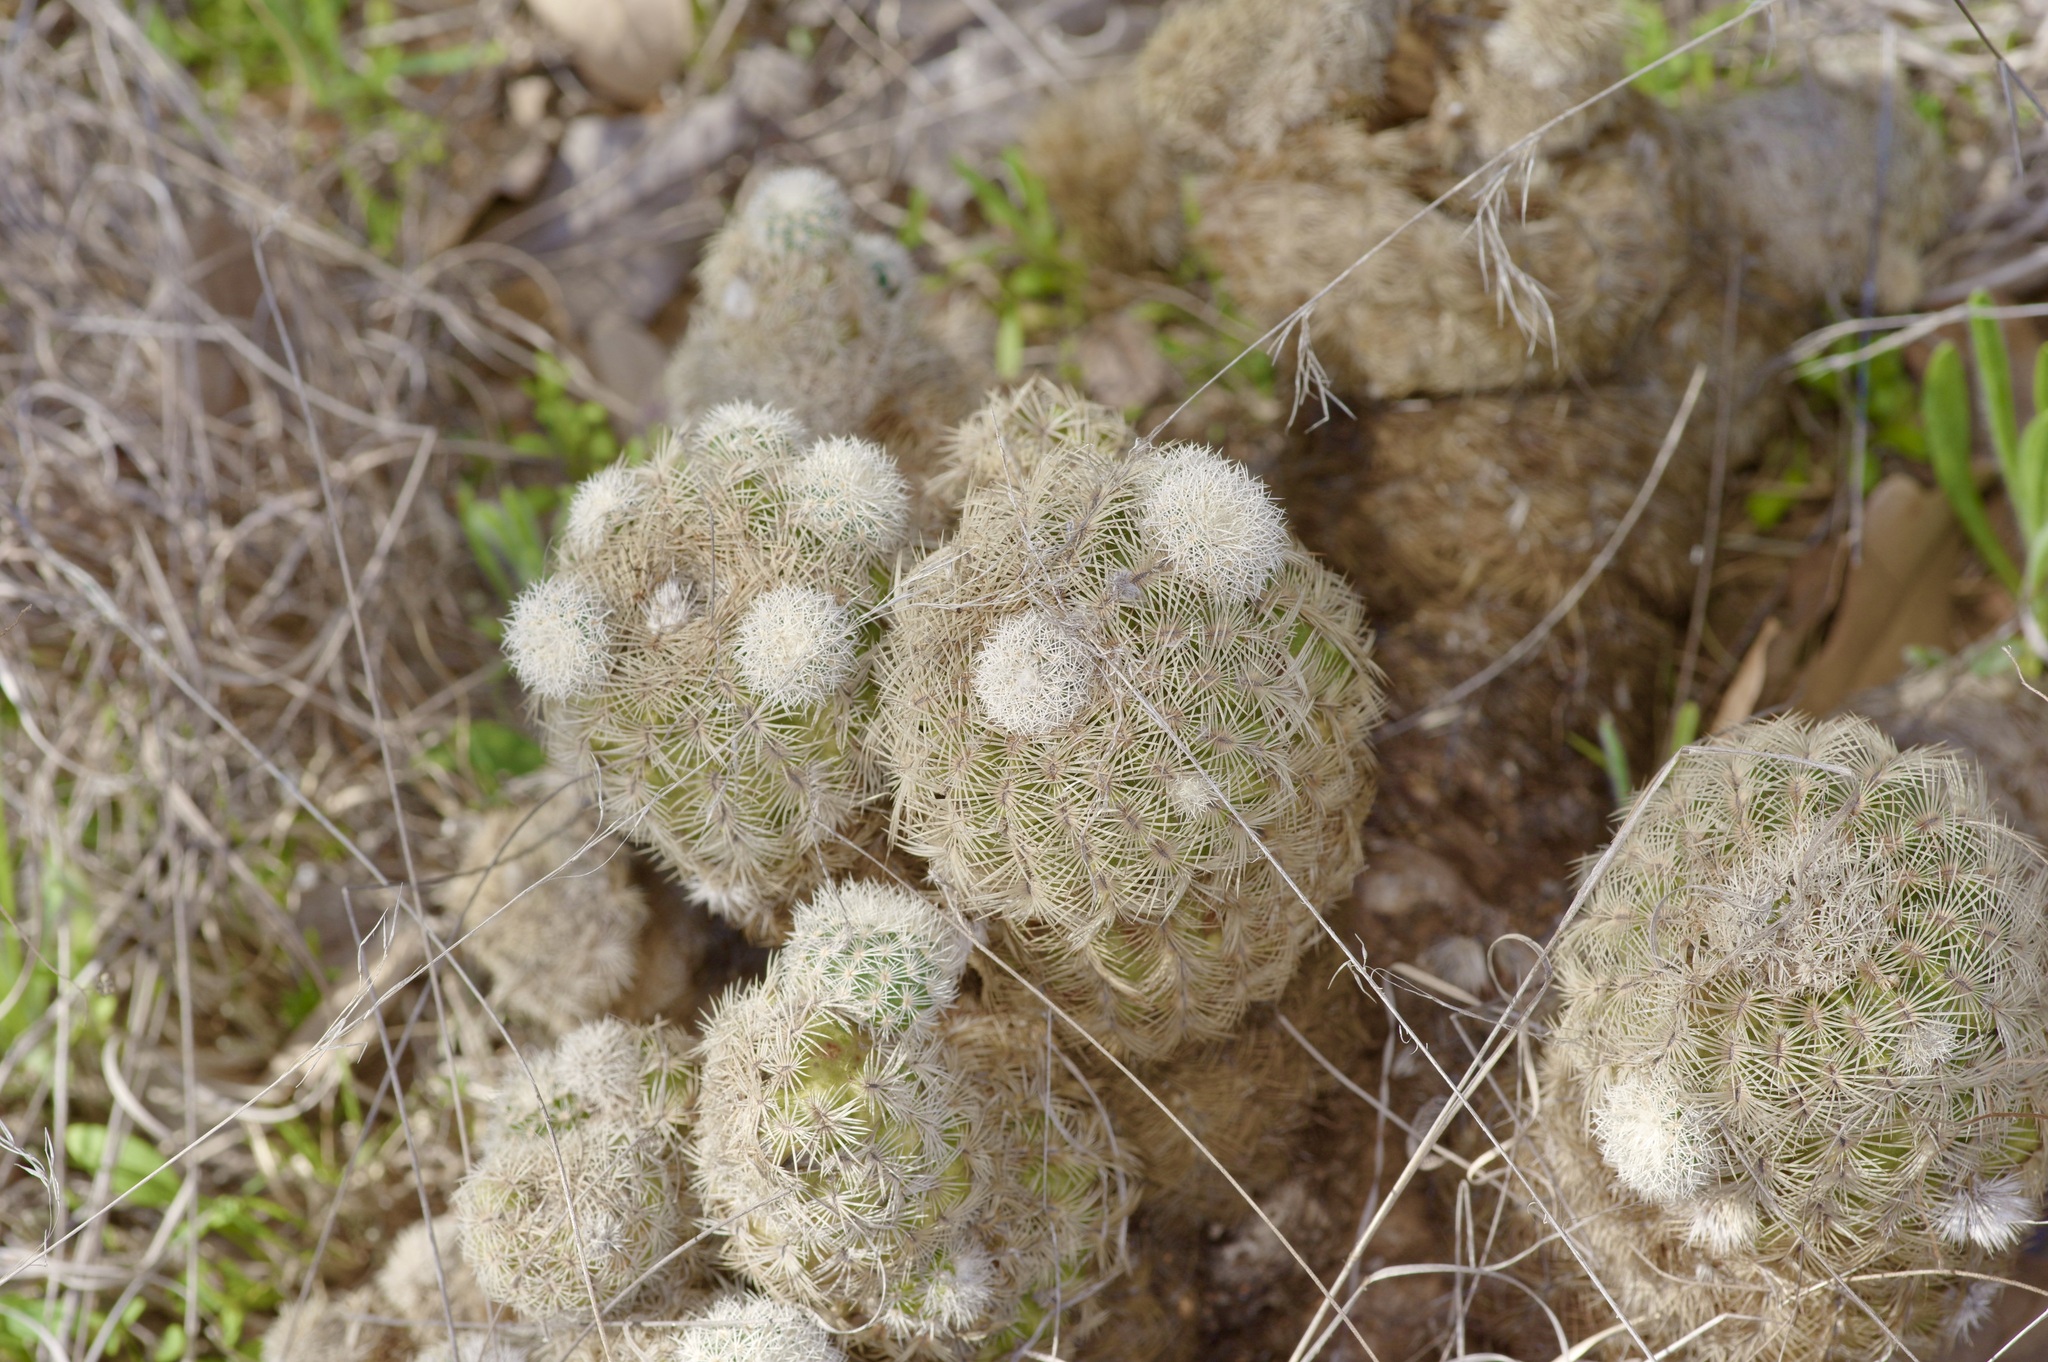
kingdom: Plantae
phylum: Tracheophyta
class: Magnoliopsida
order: Caryophyllales
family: Cactaceae
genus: Echinocereus
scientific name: Echinocereus reichenbachii
